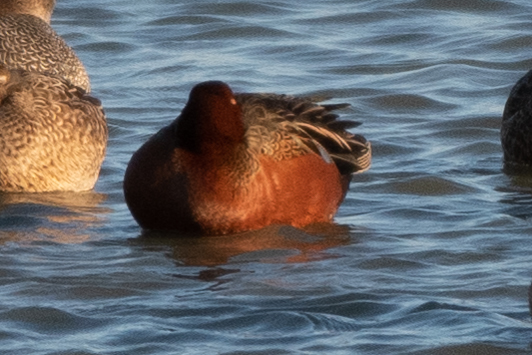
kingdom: Animalia
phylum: Chordata
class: Aves
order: Anseriformes
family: Anatidae
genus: Spatula
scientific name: Spatula cyanoptera
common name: Cinnamon teal
